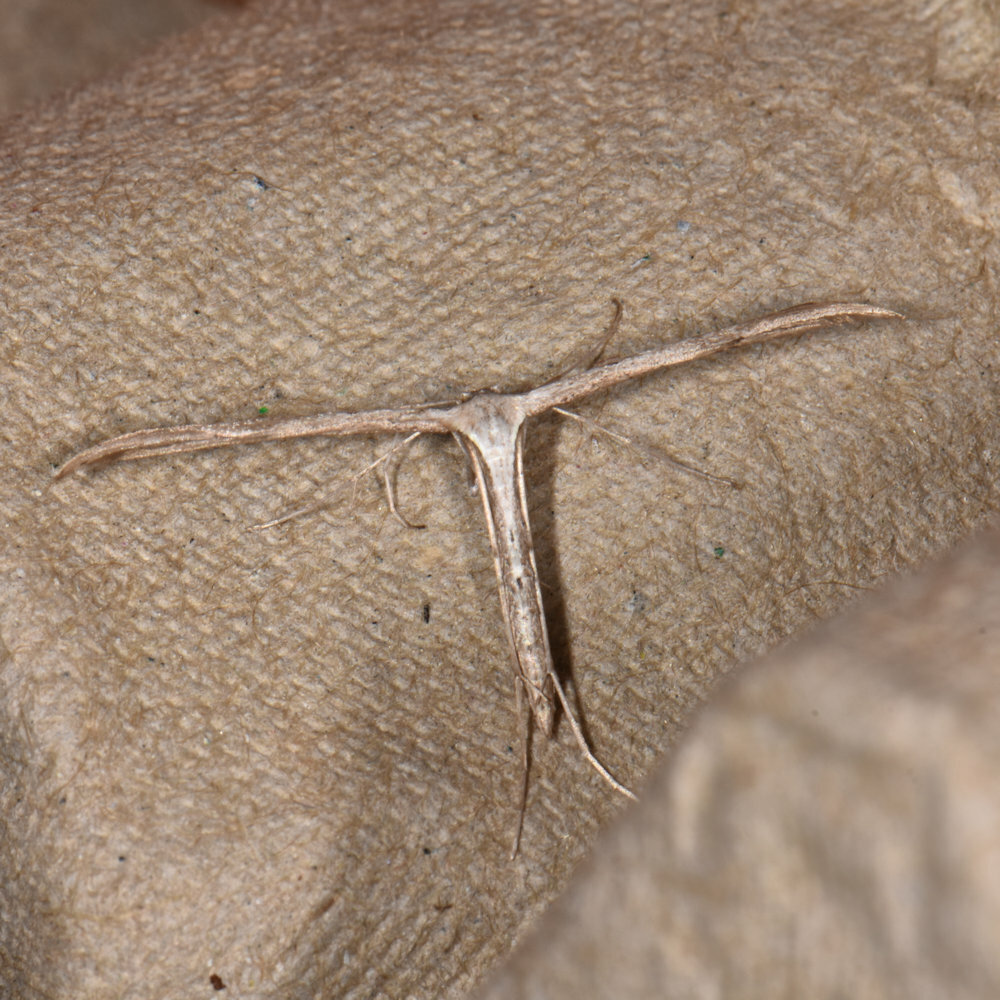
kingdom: Animalia
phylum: Arthropoda
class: Insecta
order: Lepidoptera
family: Pterophoridae
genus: Emmelina
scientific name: Emmelina monodactyla
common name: Common plume
